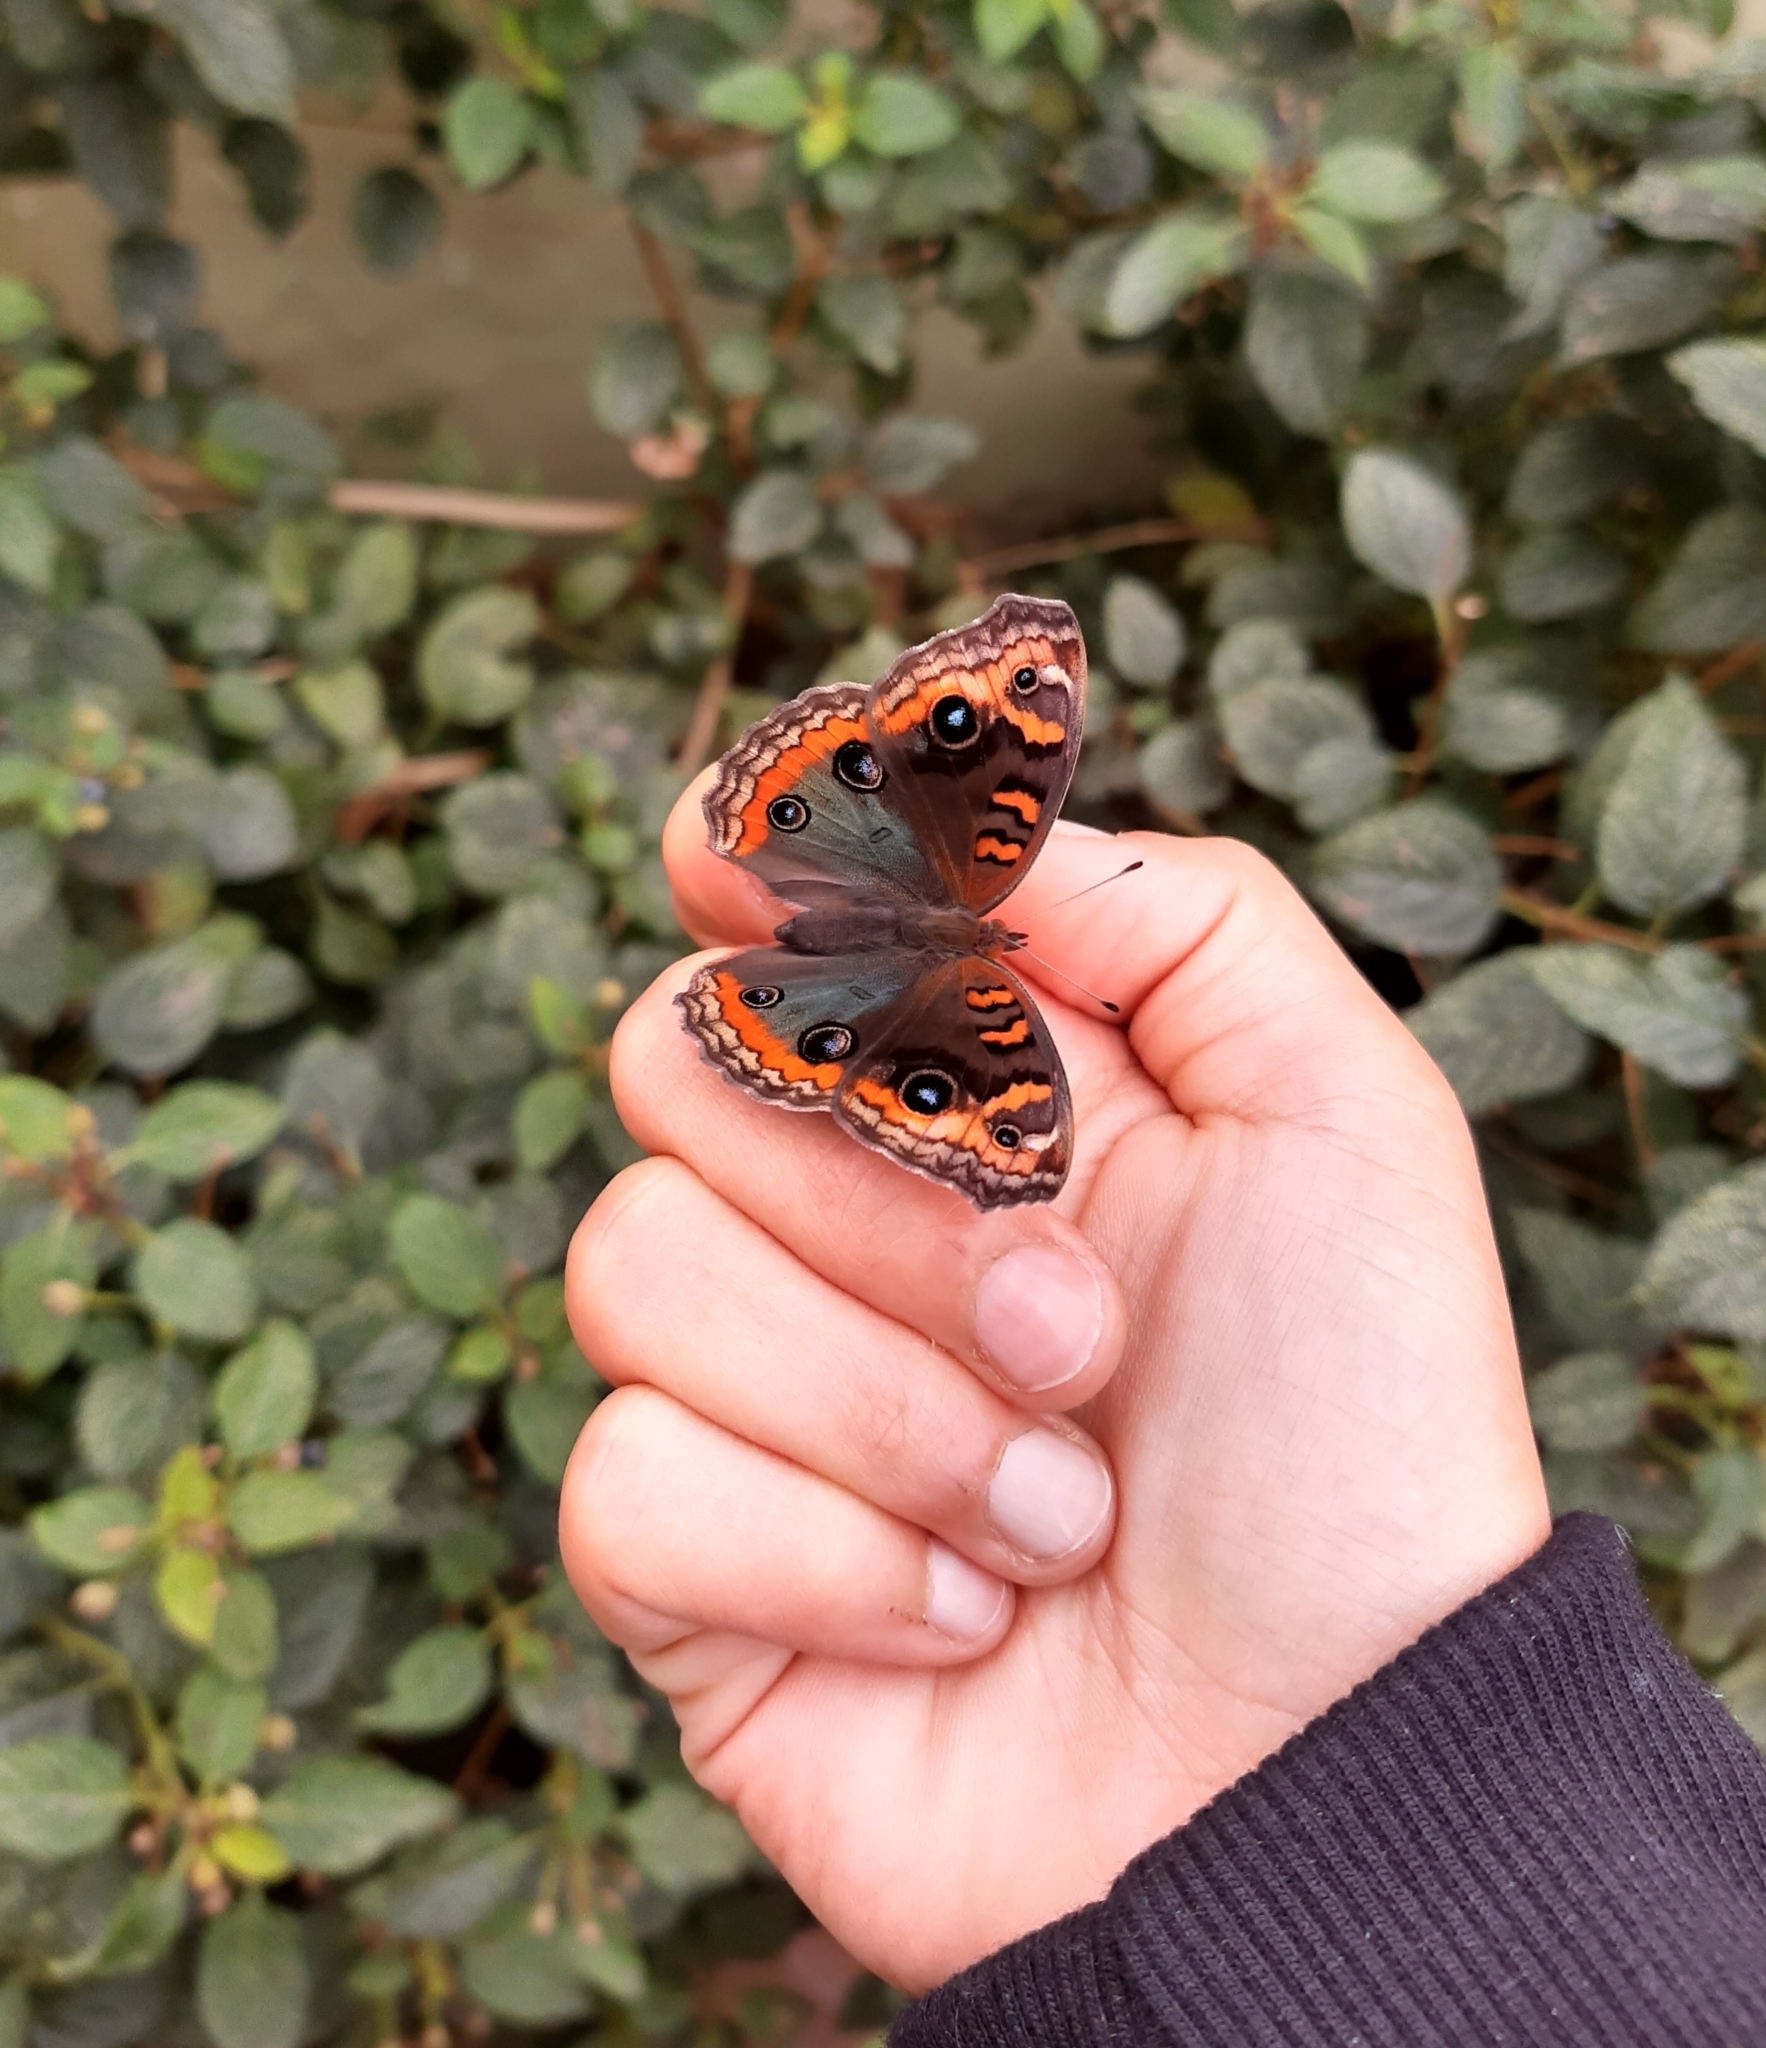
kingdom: Animalia
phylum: Arthropoda
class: Insecta
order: Lepidoptera
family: Nymphalidae
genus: Junonia
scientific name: Junonia evarete
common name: Black mangrove buckeye
